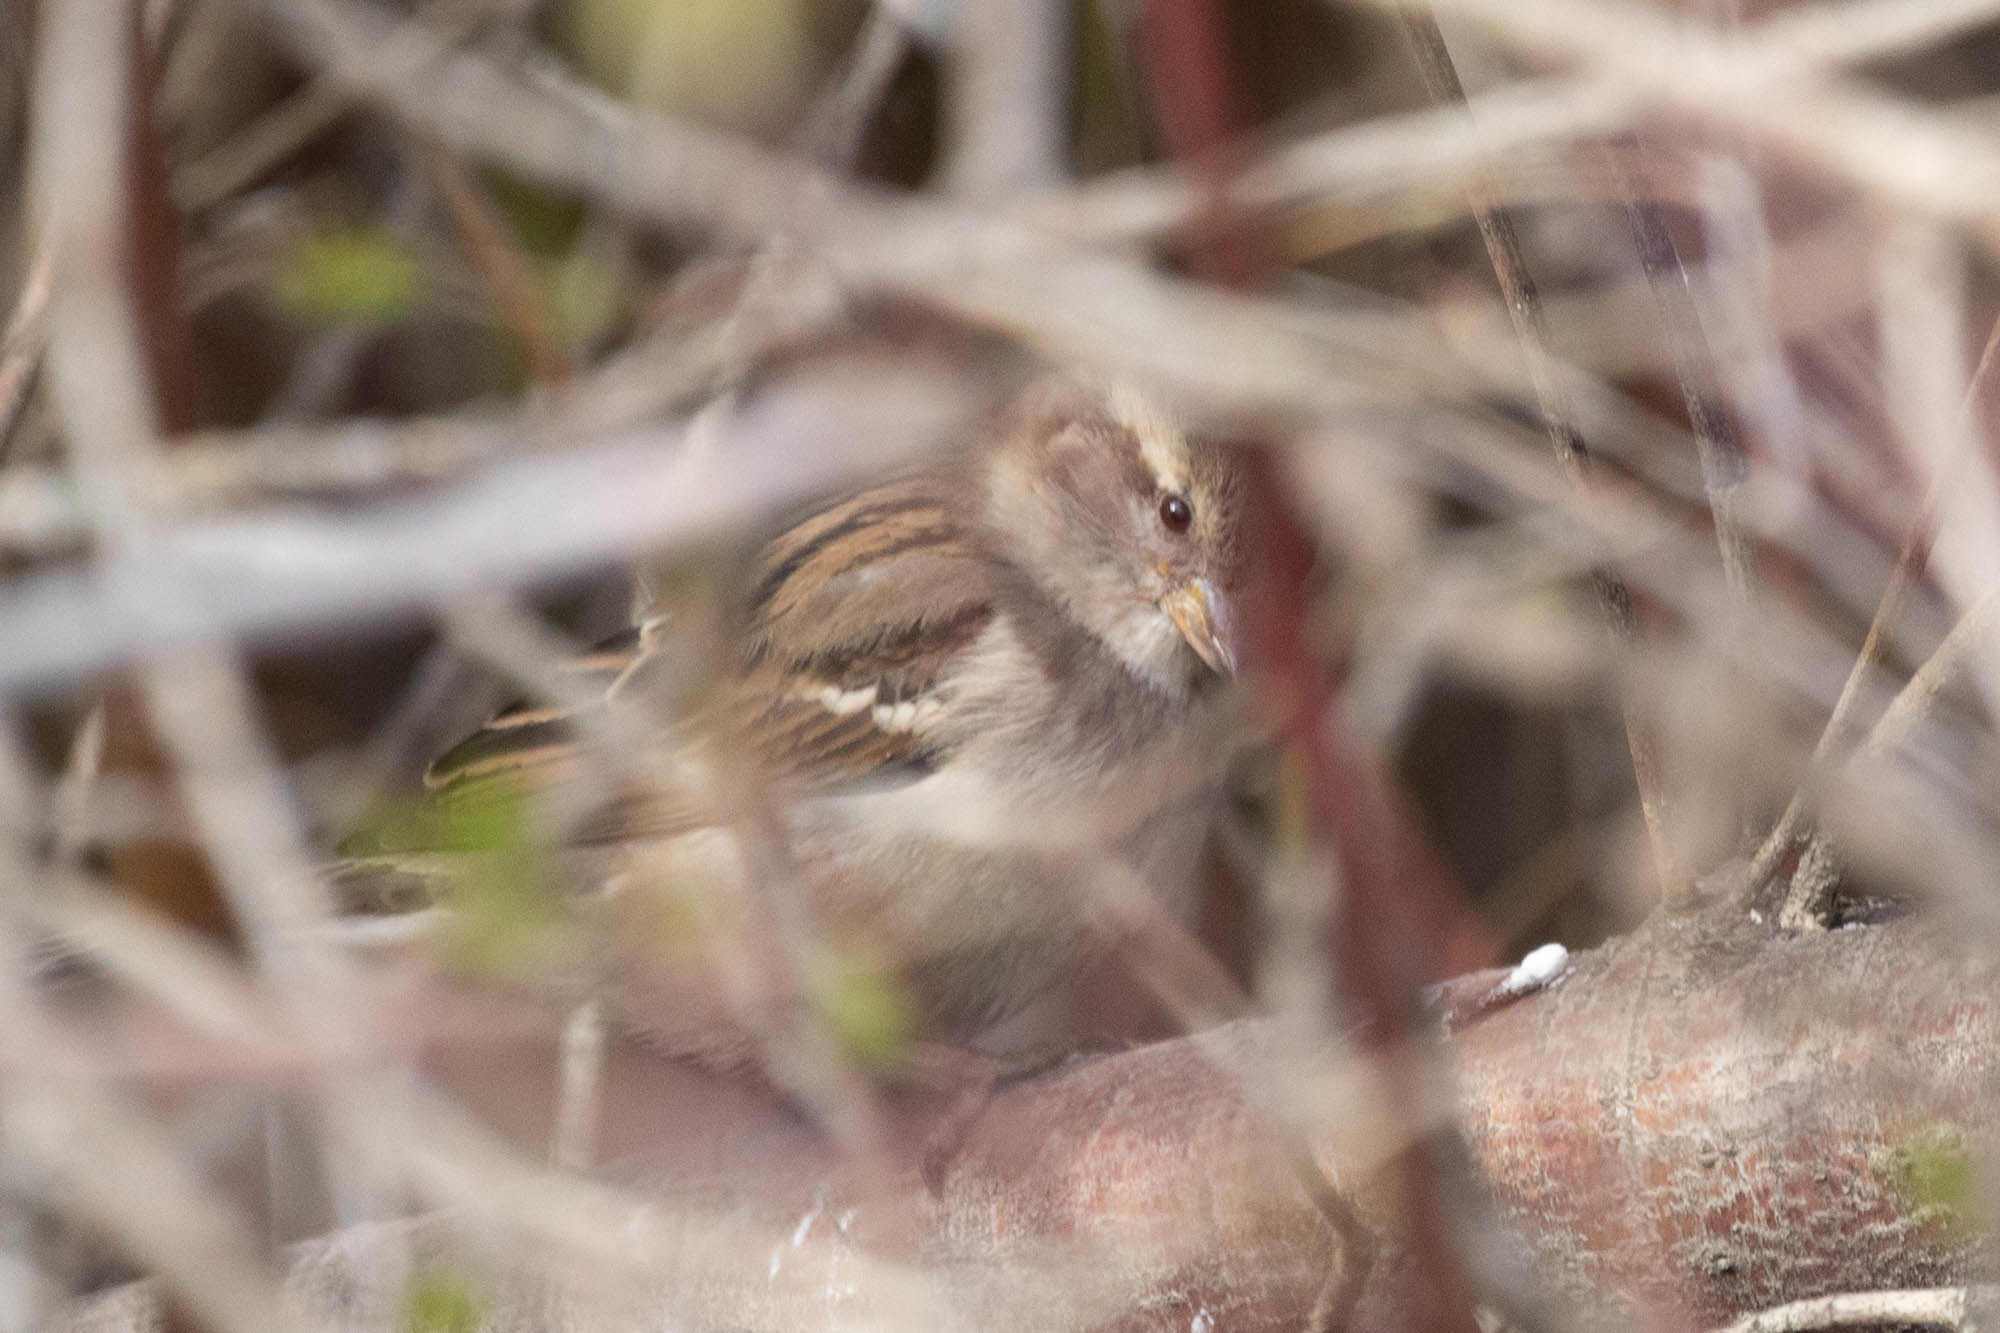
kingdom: Animalia
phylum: Chordata
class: Aves
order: Passeriformes
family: Passeridae
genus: Passer
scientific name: Passer domesticus
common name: House sparrow
